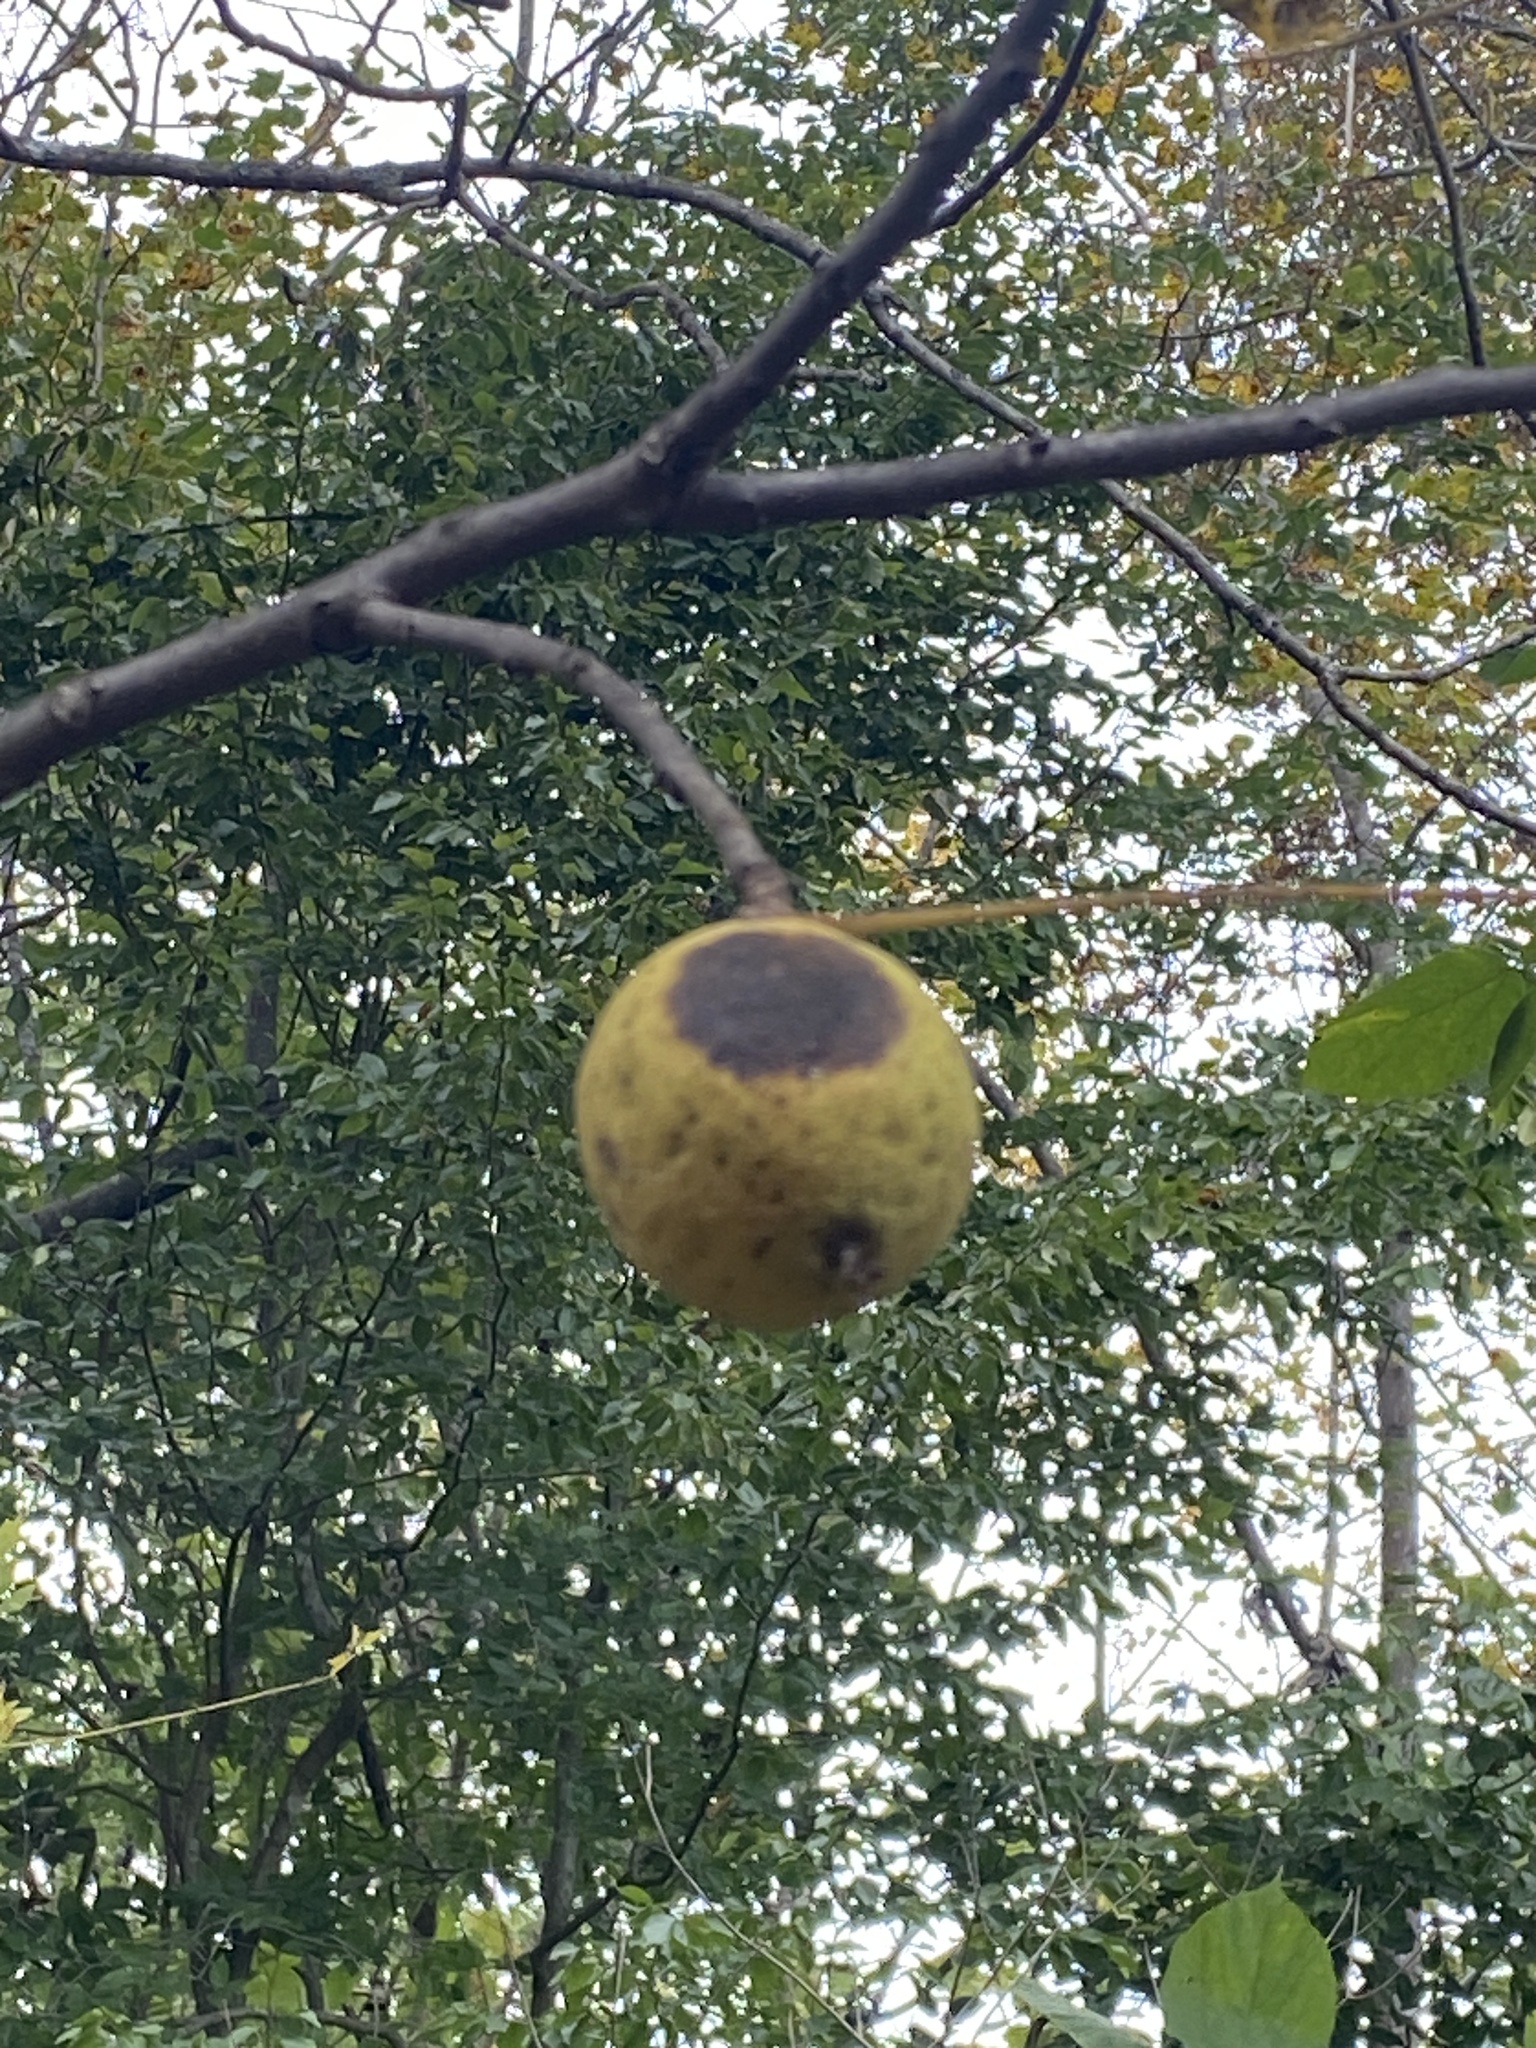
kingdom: Plantae
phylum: Tracheophyta
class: Magnoliopsida
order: Fagales
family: Juglandaceae
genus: Juglans
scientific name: Juglans nigra
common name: Black walnut
